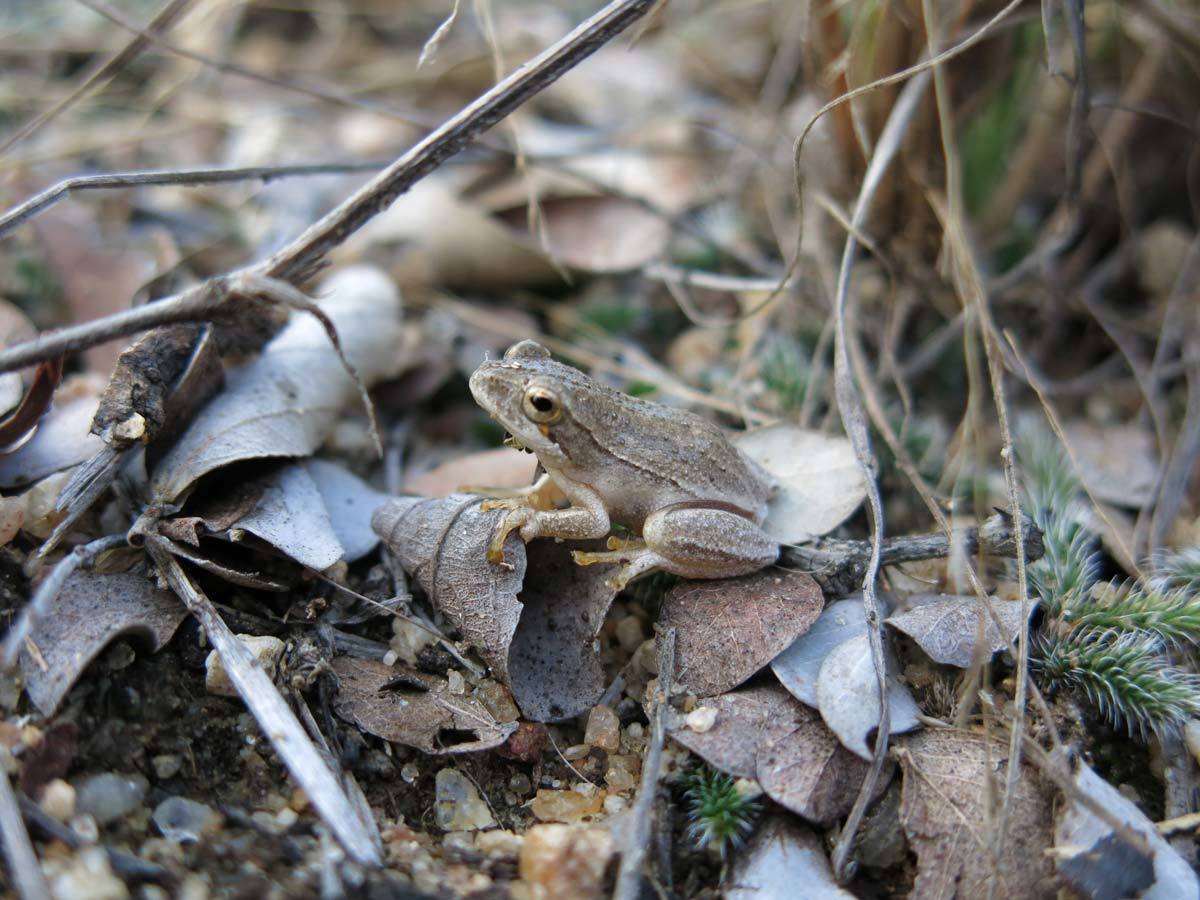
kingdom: Animalia
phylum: Chordata
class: Amphibia
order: Anura
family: Hyperoliidae
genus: Hyperolius
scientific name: Hyperolius marmoratus
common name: Painted reed frog
